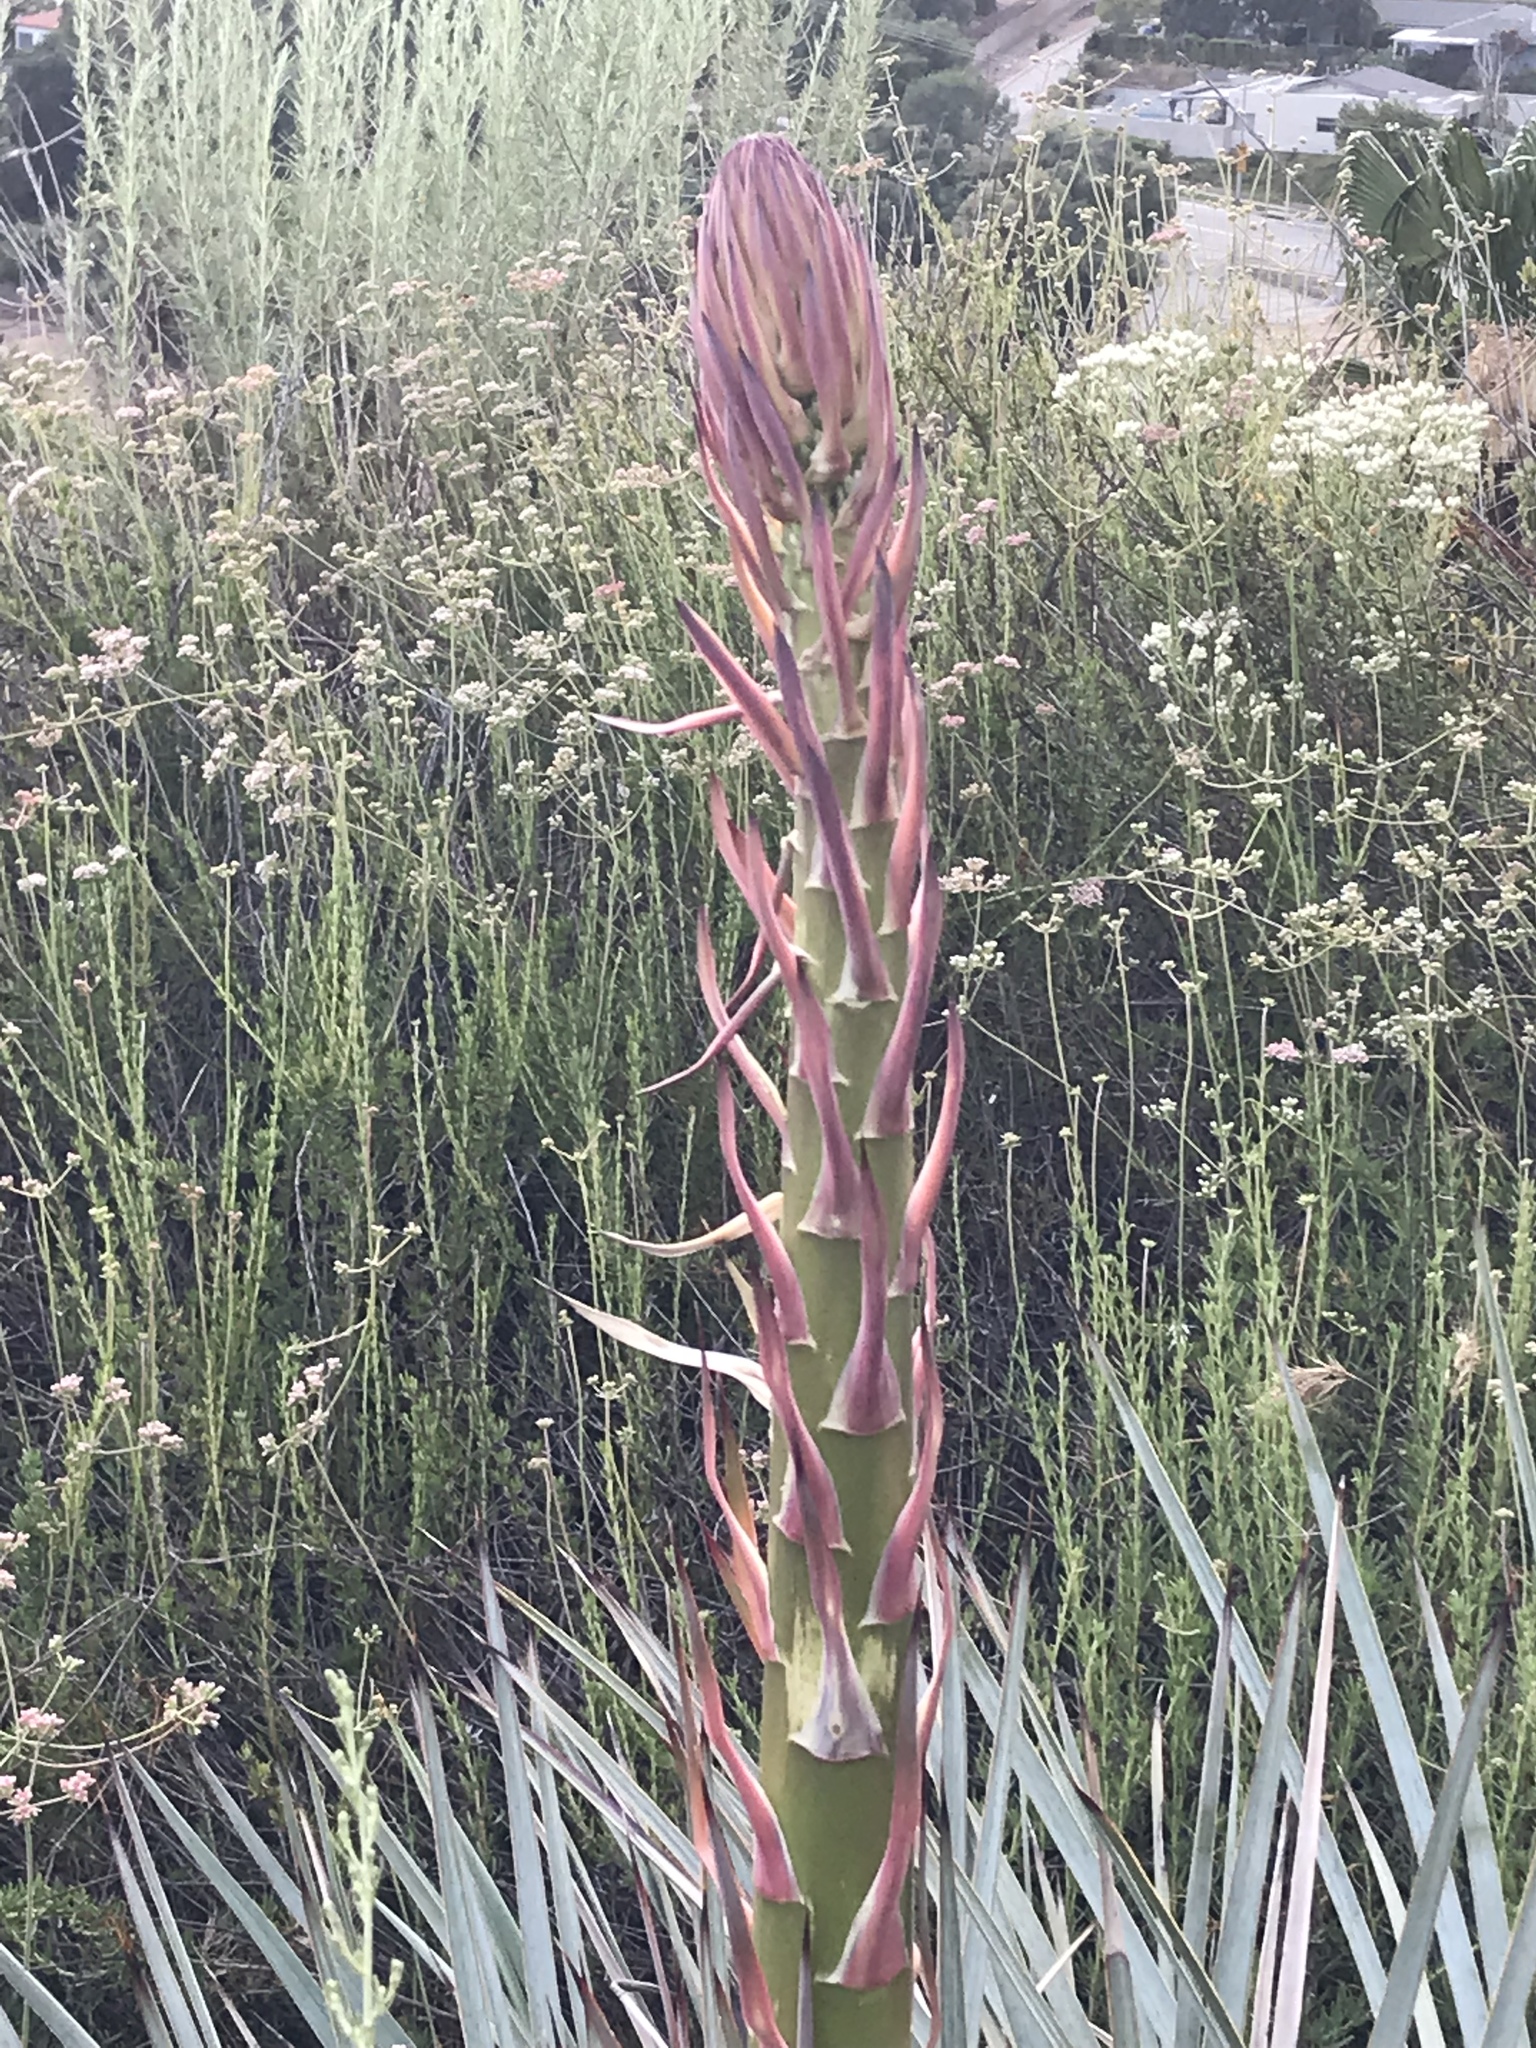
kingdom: Plantae
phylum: Tracheophyta
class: Liliopsida
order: Asparagales
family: Asparagaceae
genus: Hesperoyucca
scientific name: Hesperoyucca whipplei
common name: Our lord's-candle
